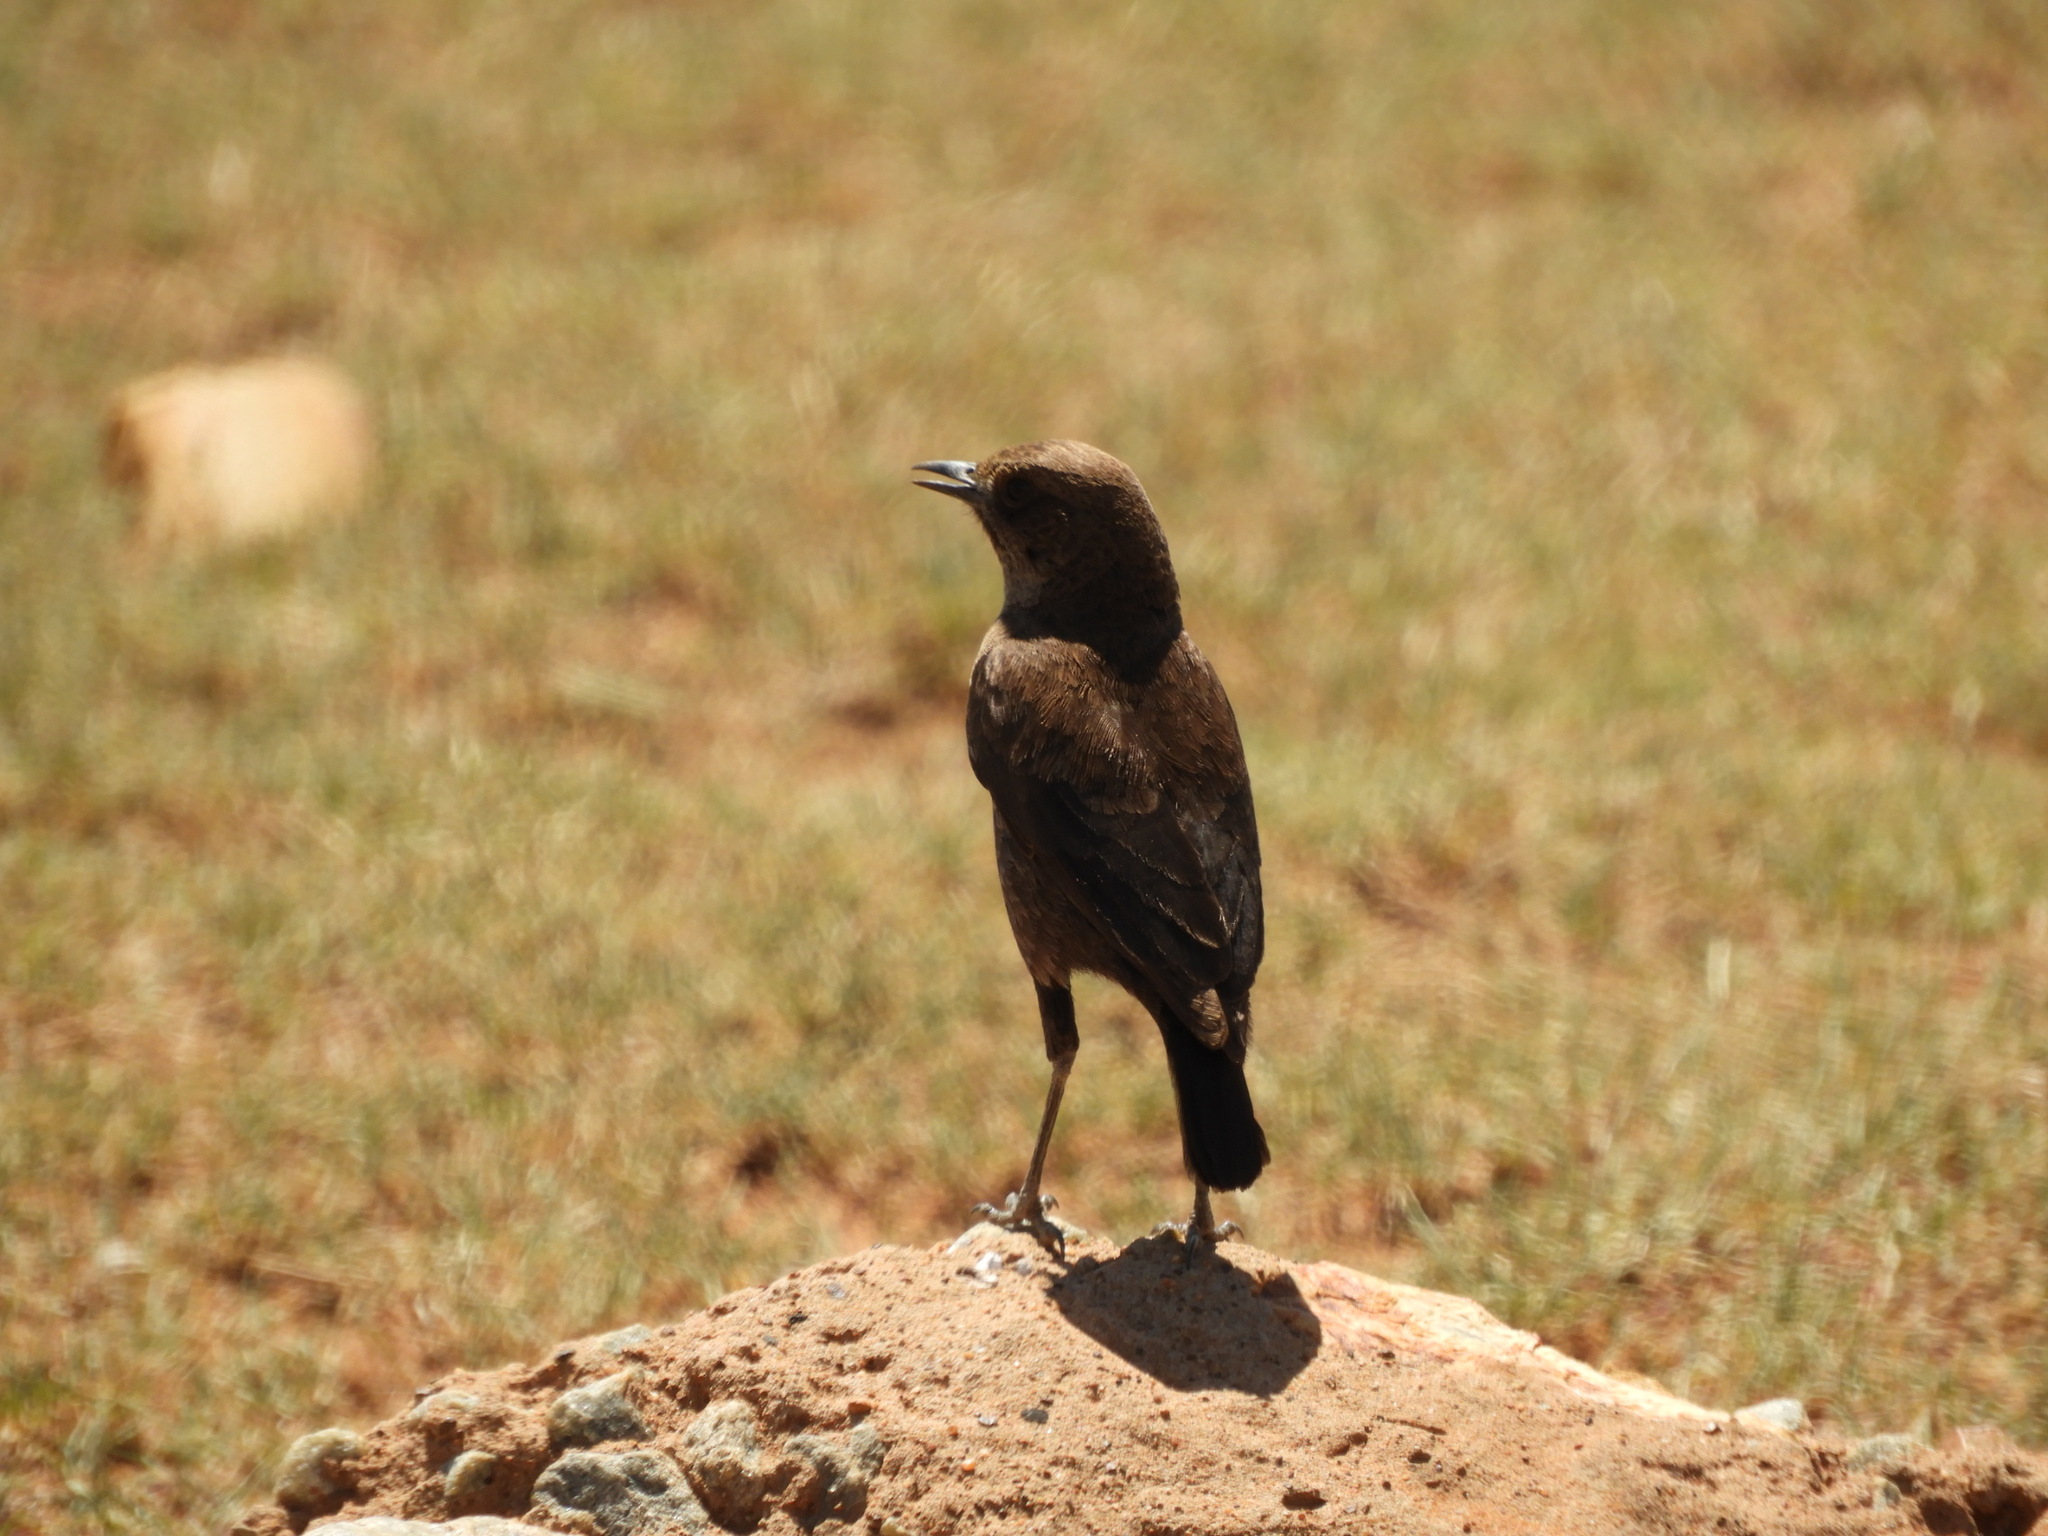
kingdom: Animalia
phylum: Chordata
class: Aves
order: Passeriformes
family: Muscicapidae
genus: Myrmecocichla
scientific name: Myrmecocichla formicivora
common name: Ant-eating chat
